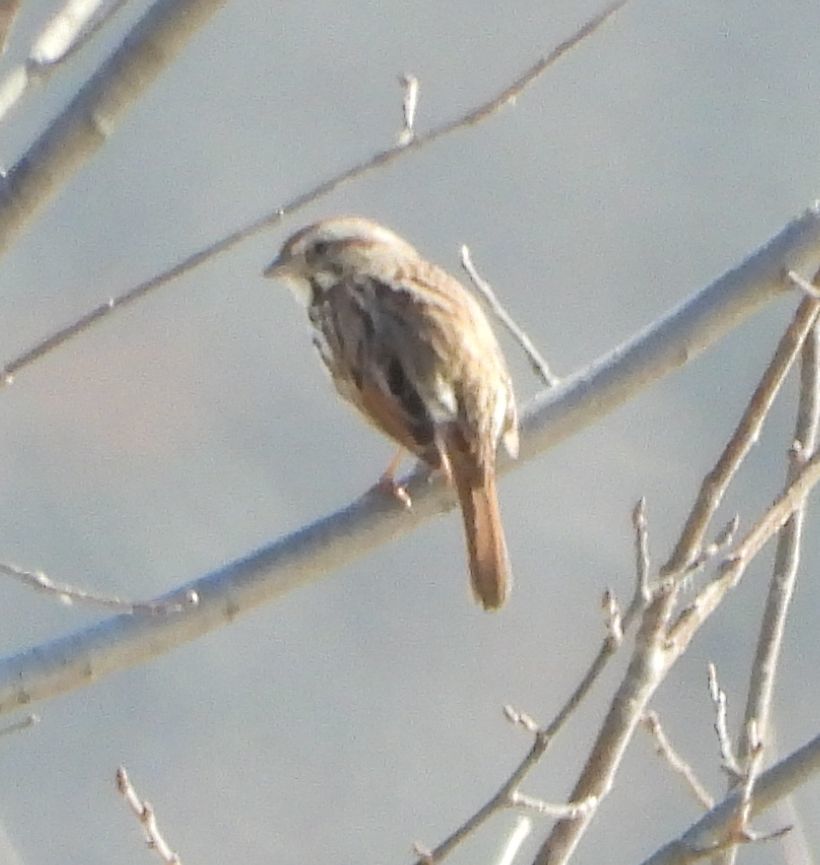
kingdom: Animalia
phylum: Chordata
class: Aves
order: Passeriformes
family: Passerellidae
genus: Melospiza
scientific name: Melospiza melodia
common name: Song sparrow
